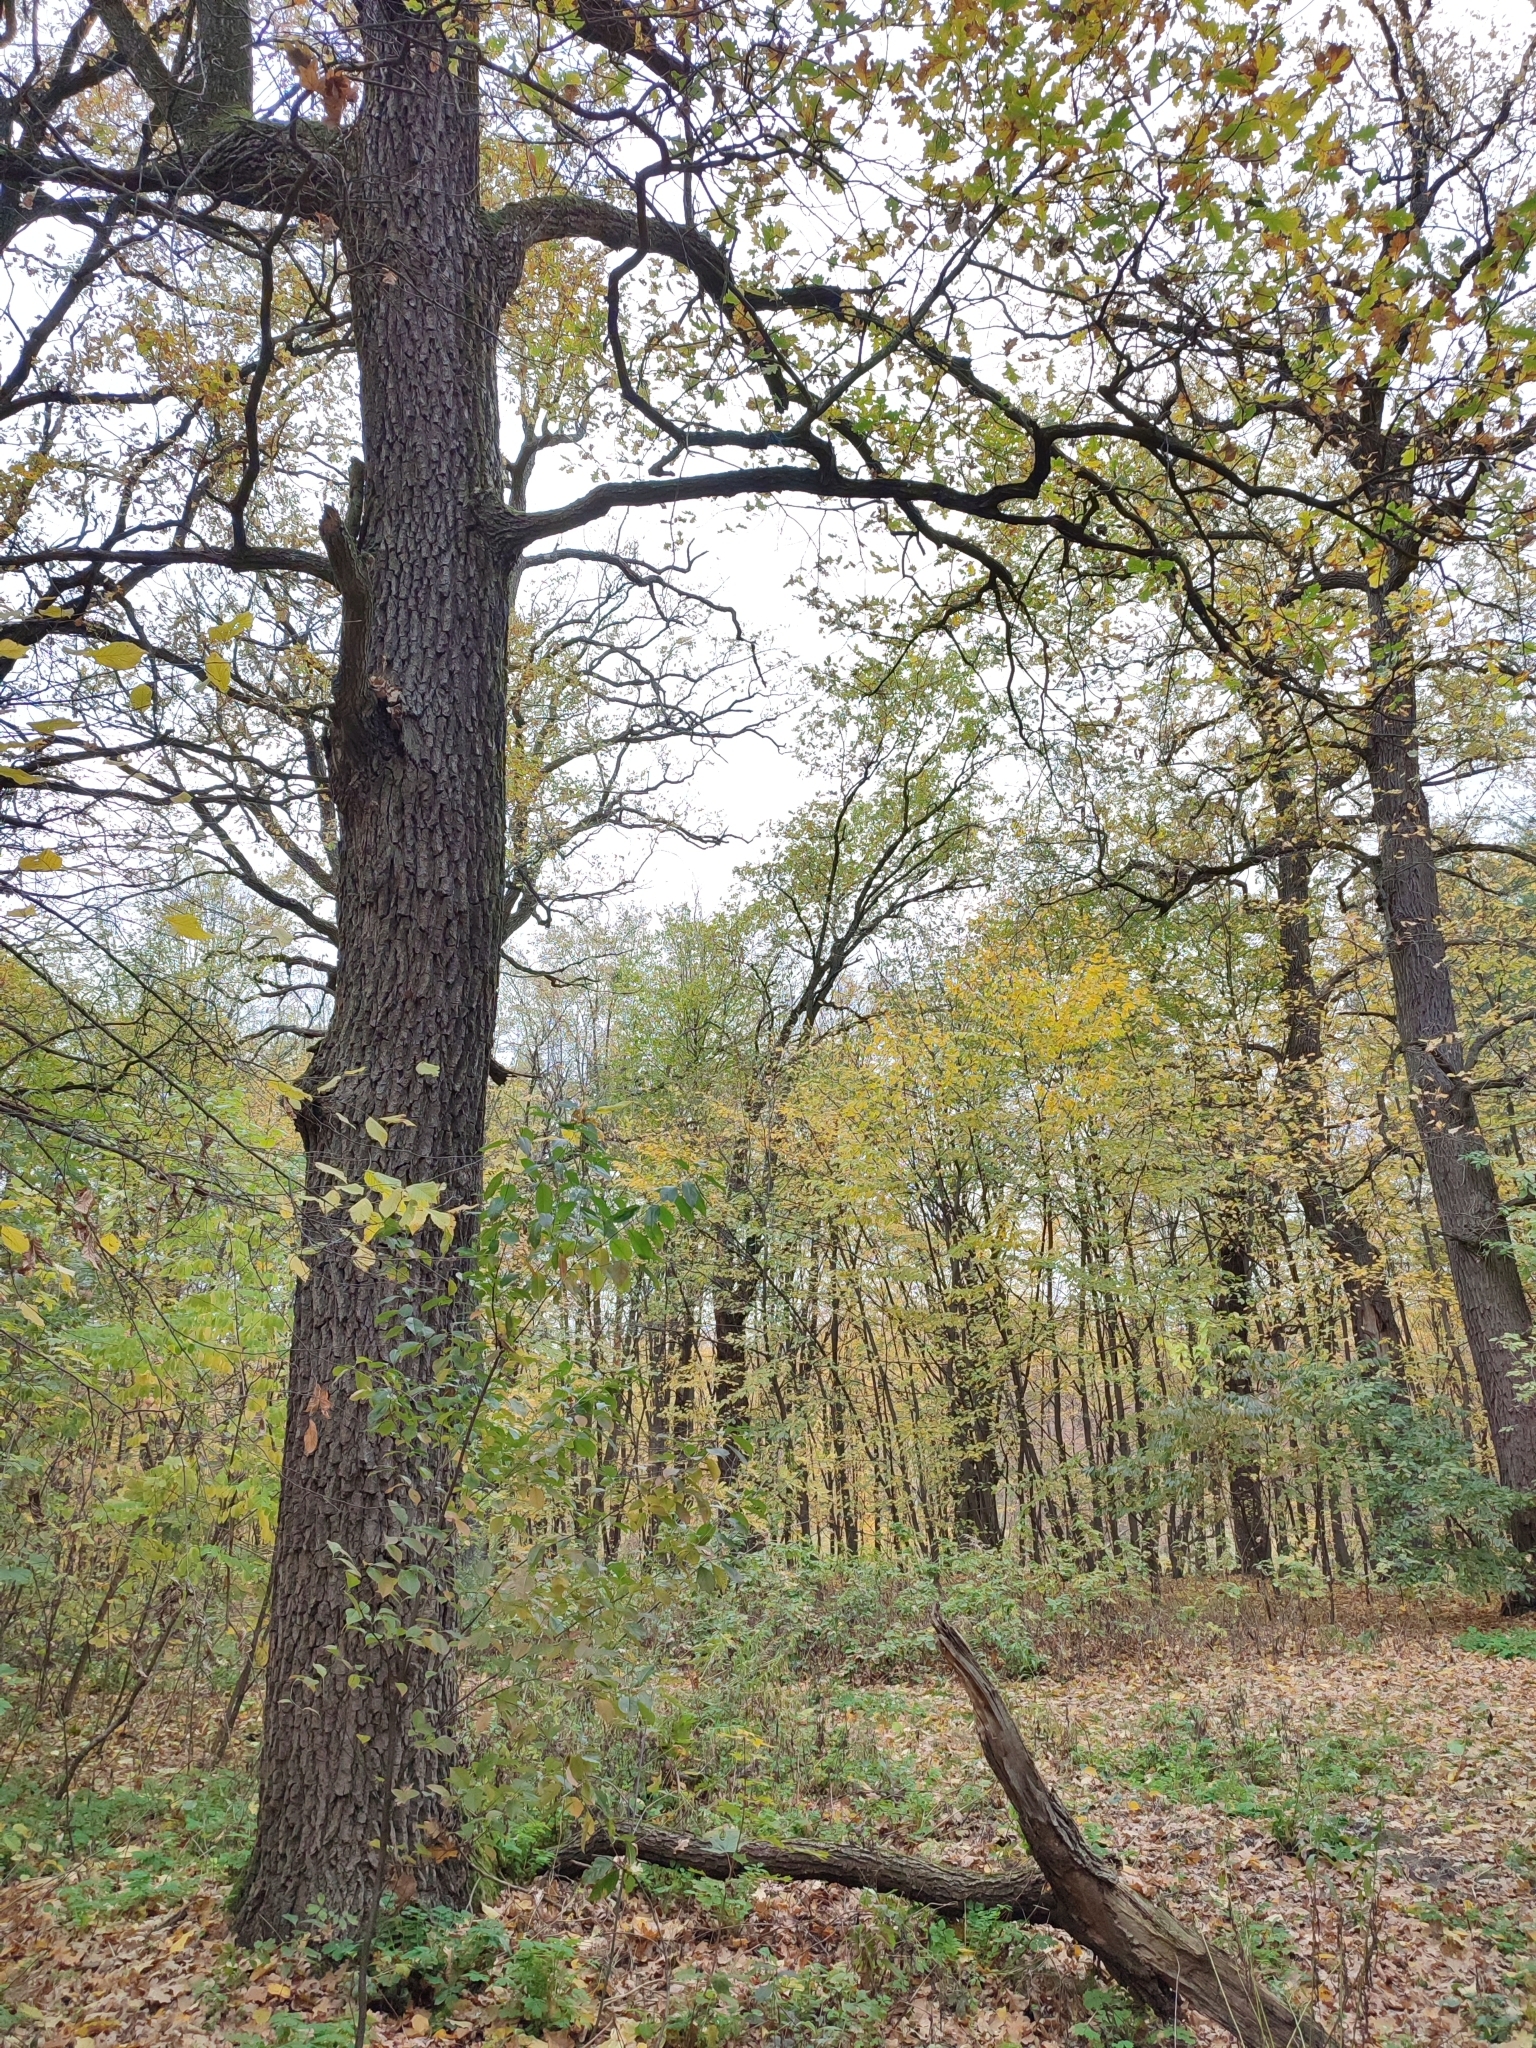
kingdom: Plantae
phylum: Tracheophyta
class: Magnoliopsida
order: Fagales
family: Fagaceae
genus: Quercus
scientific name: Quercus robur
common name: Pedunculate oak
